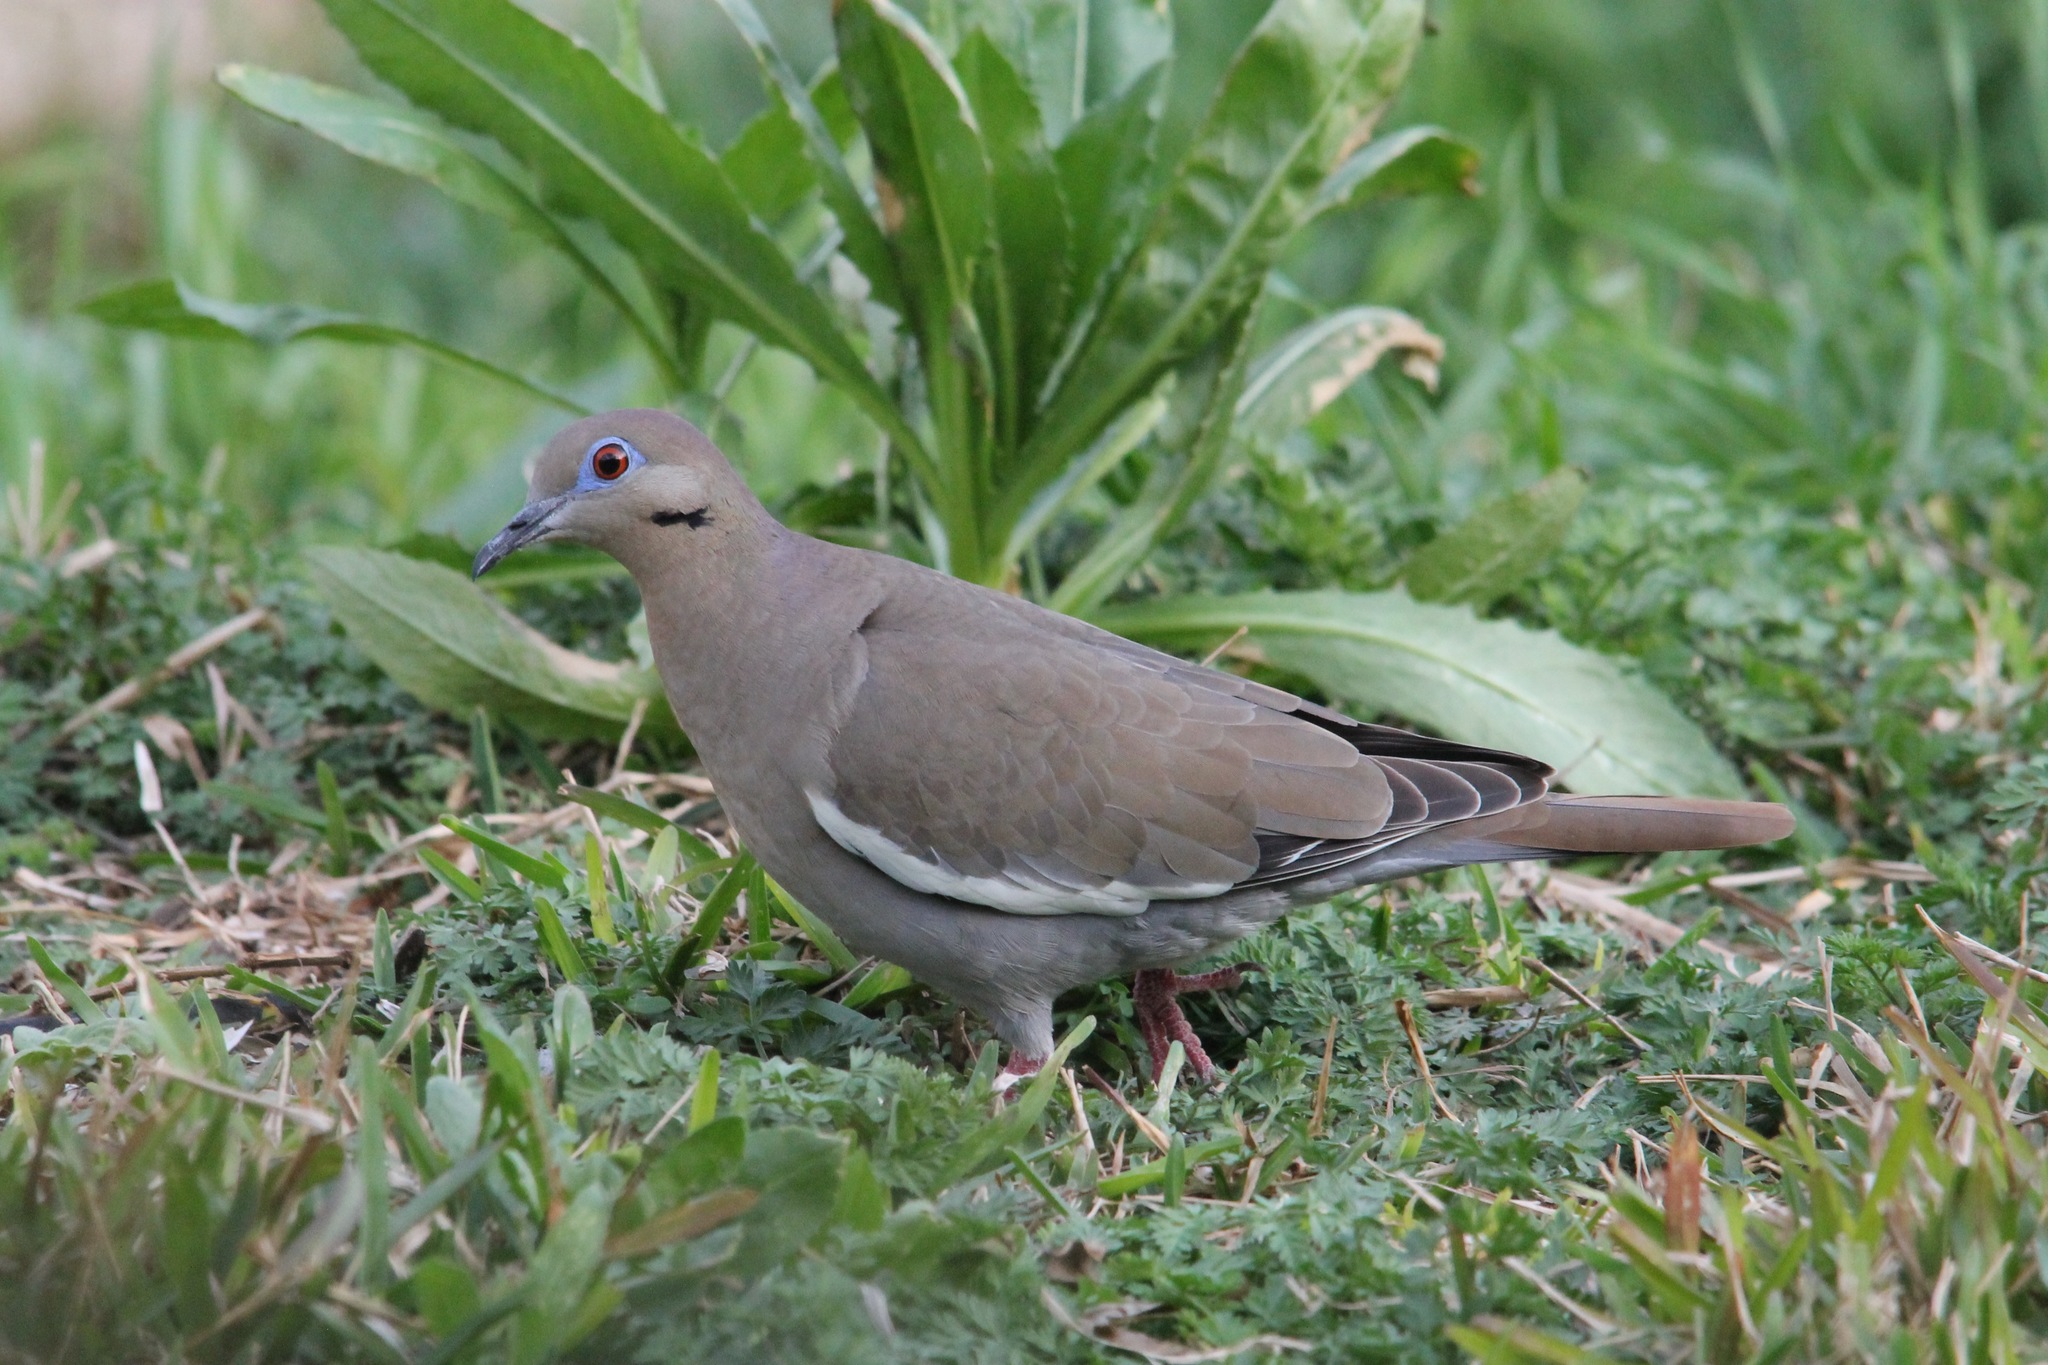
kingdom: Animalia
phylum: Chordata
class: Aves
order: Columbiformes
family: Columbidae
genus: Zenaida
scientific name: Zenaida asiatica
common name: White-winged dove
